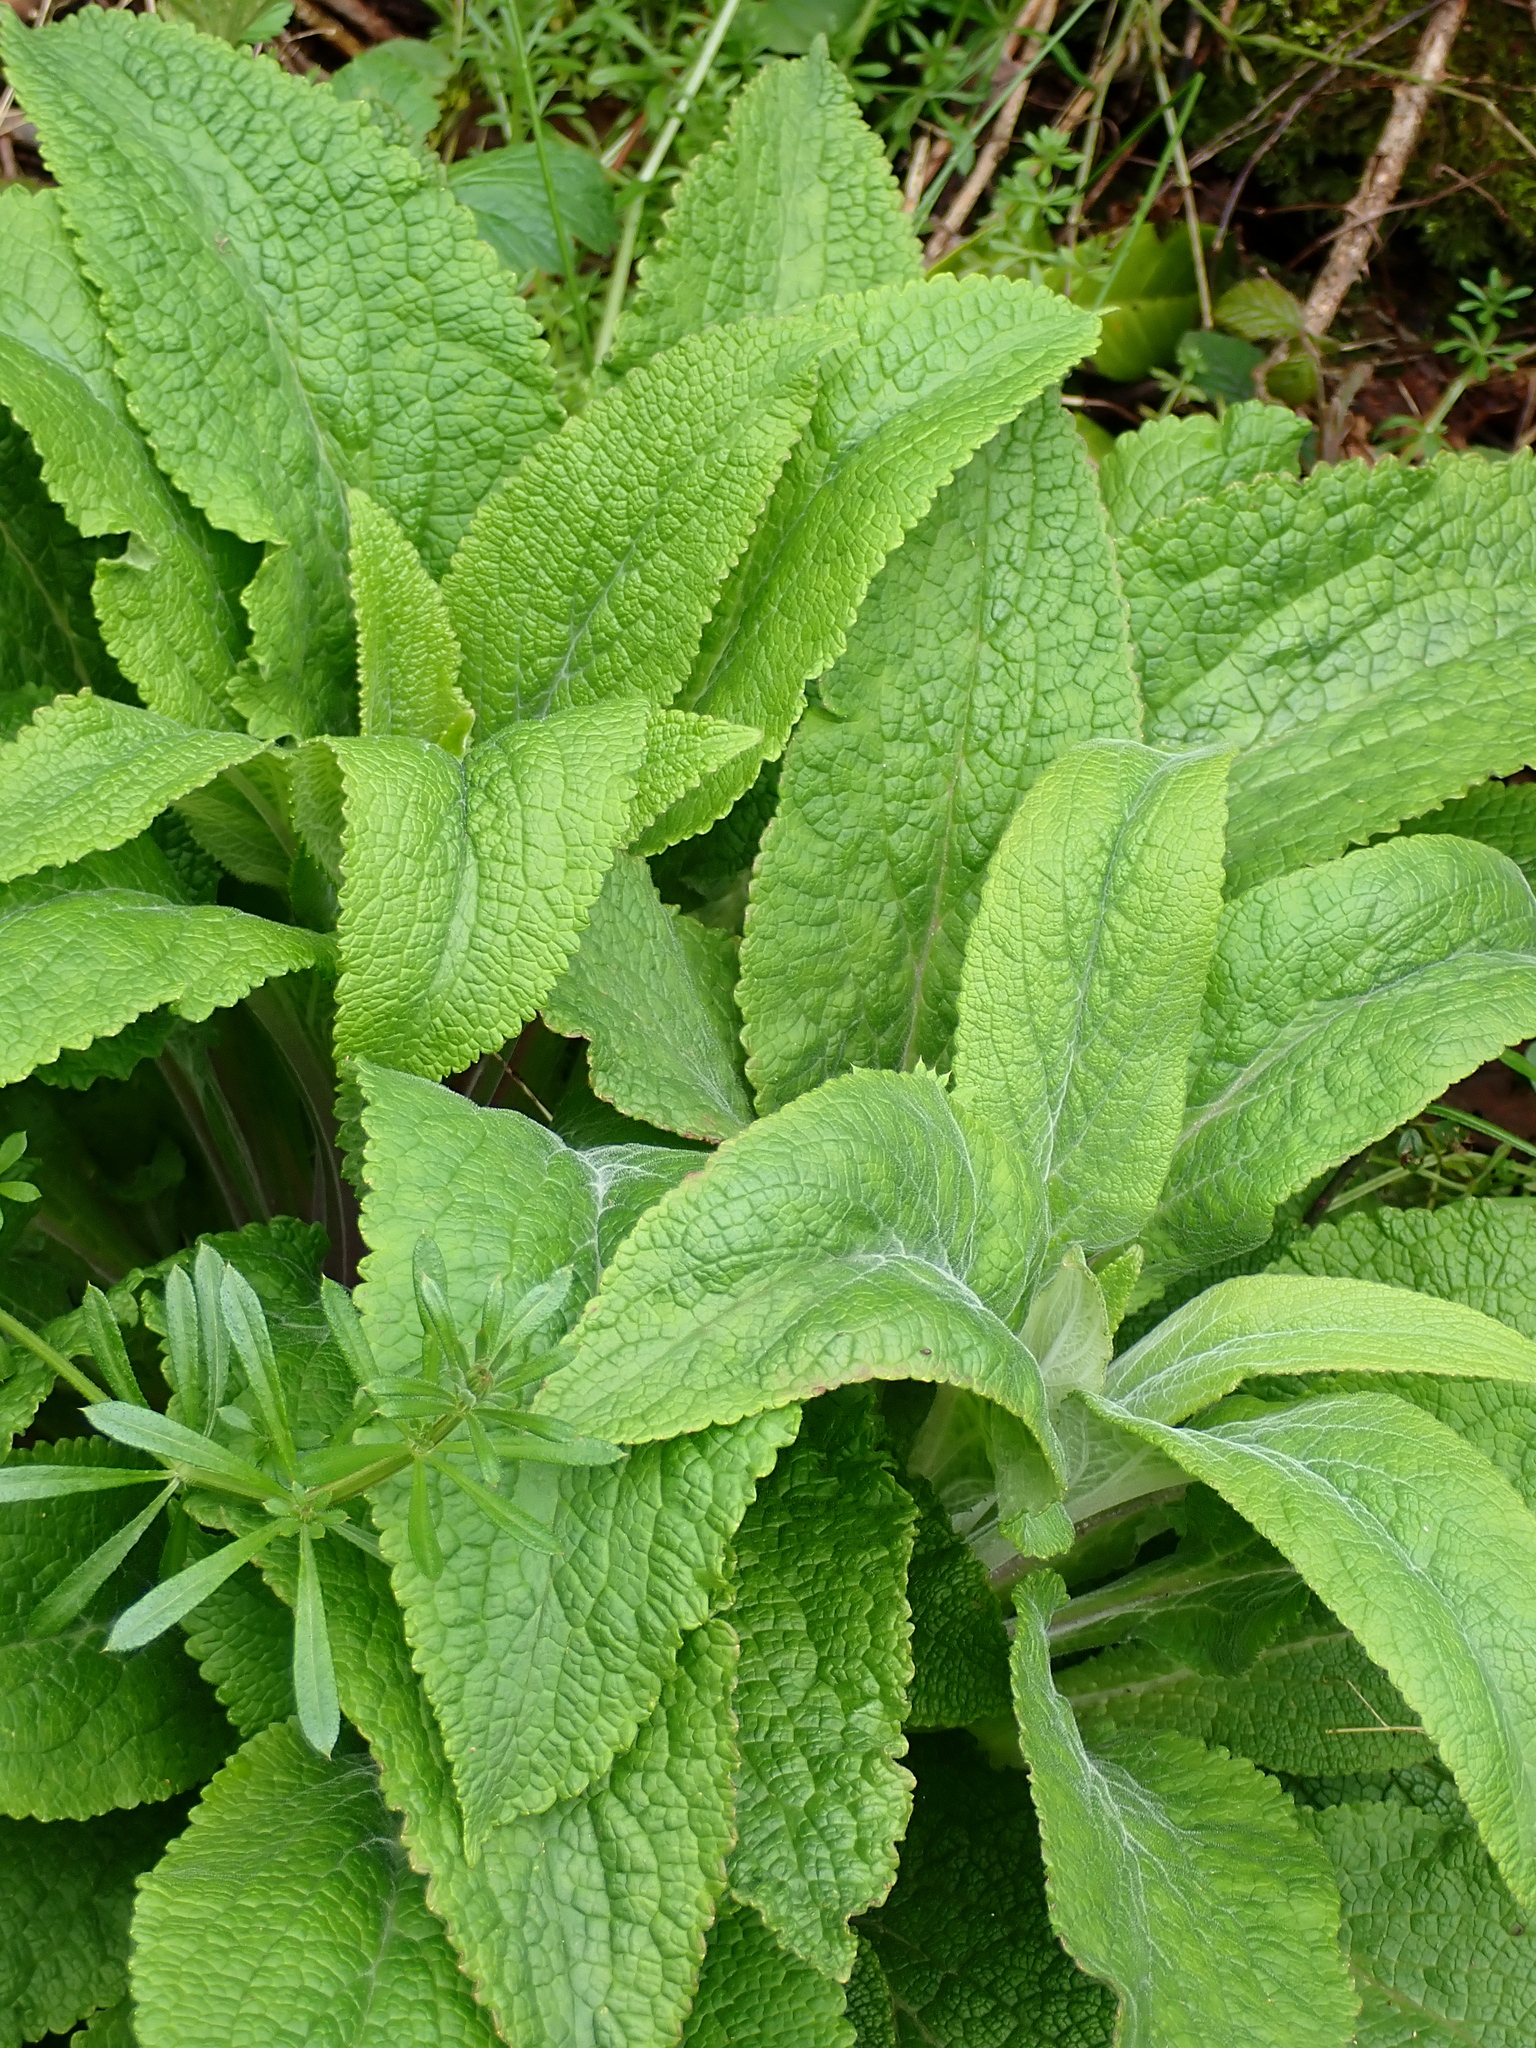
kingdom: Plantae
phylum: Tracheophyta
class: Magnoliopsida
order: Lamiales
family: Plantaginaceae
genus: Digitalis
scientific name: Digitalis purpurea
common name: Foxglove
